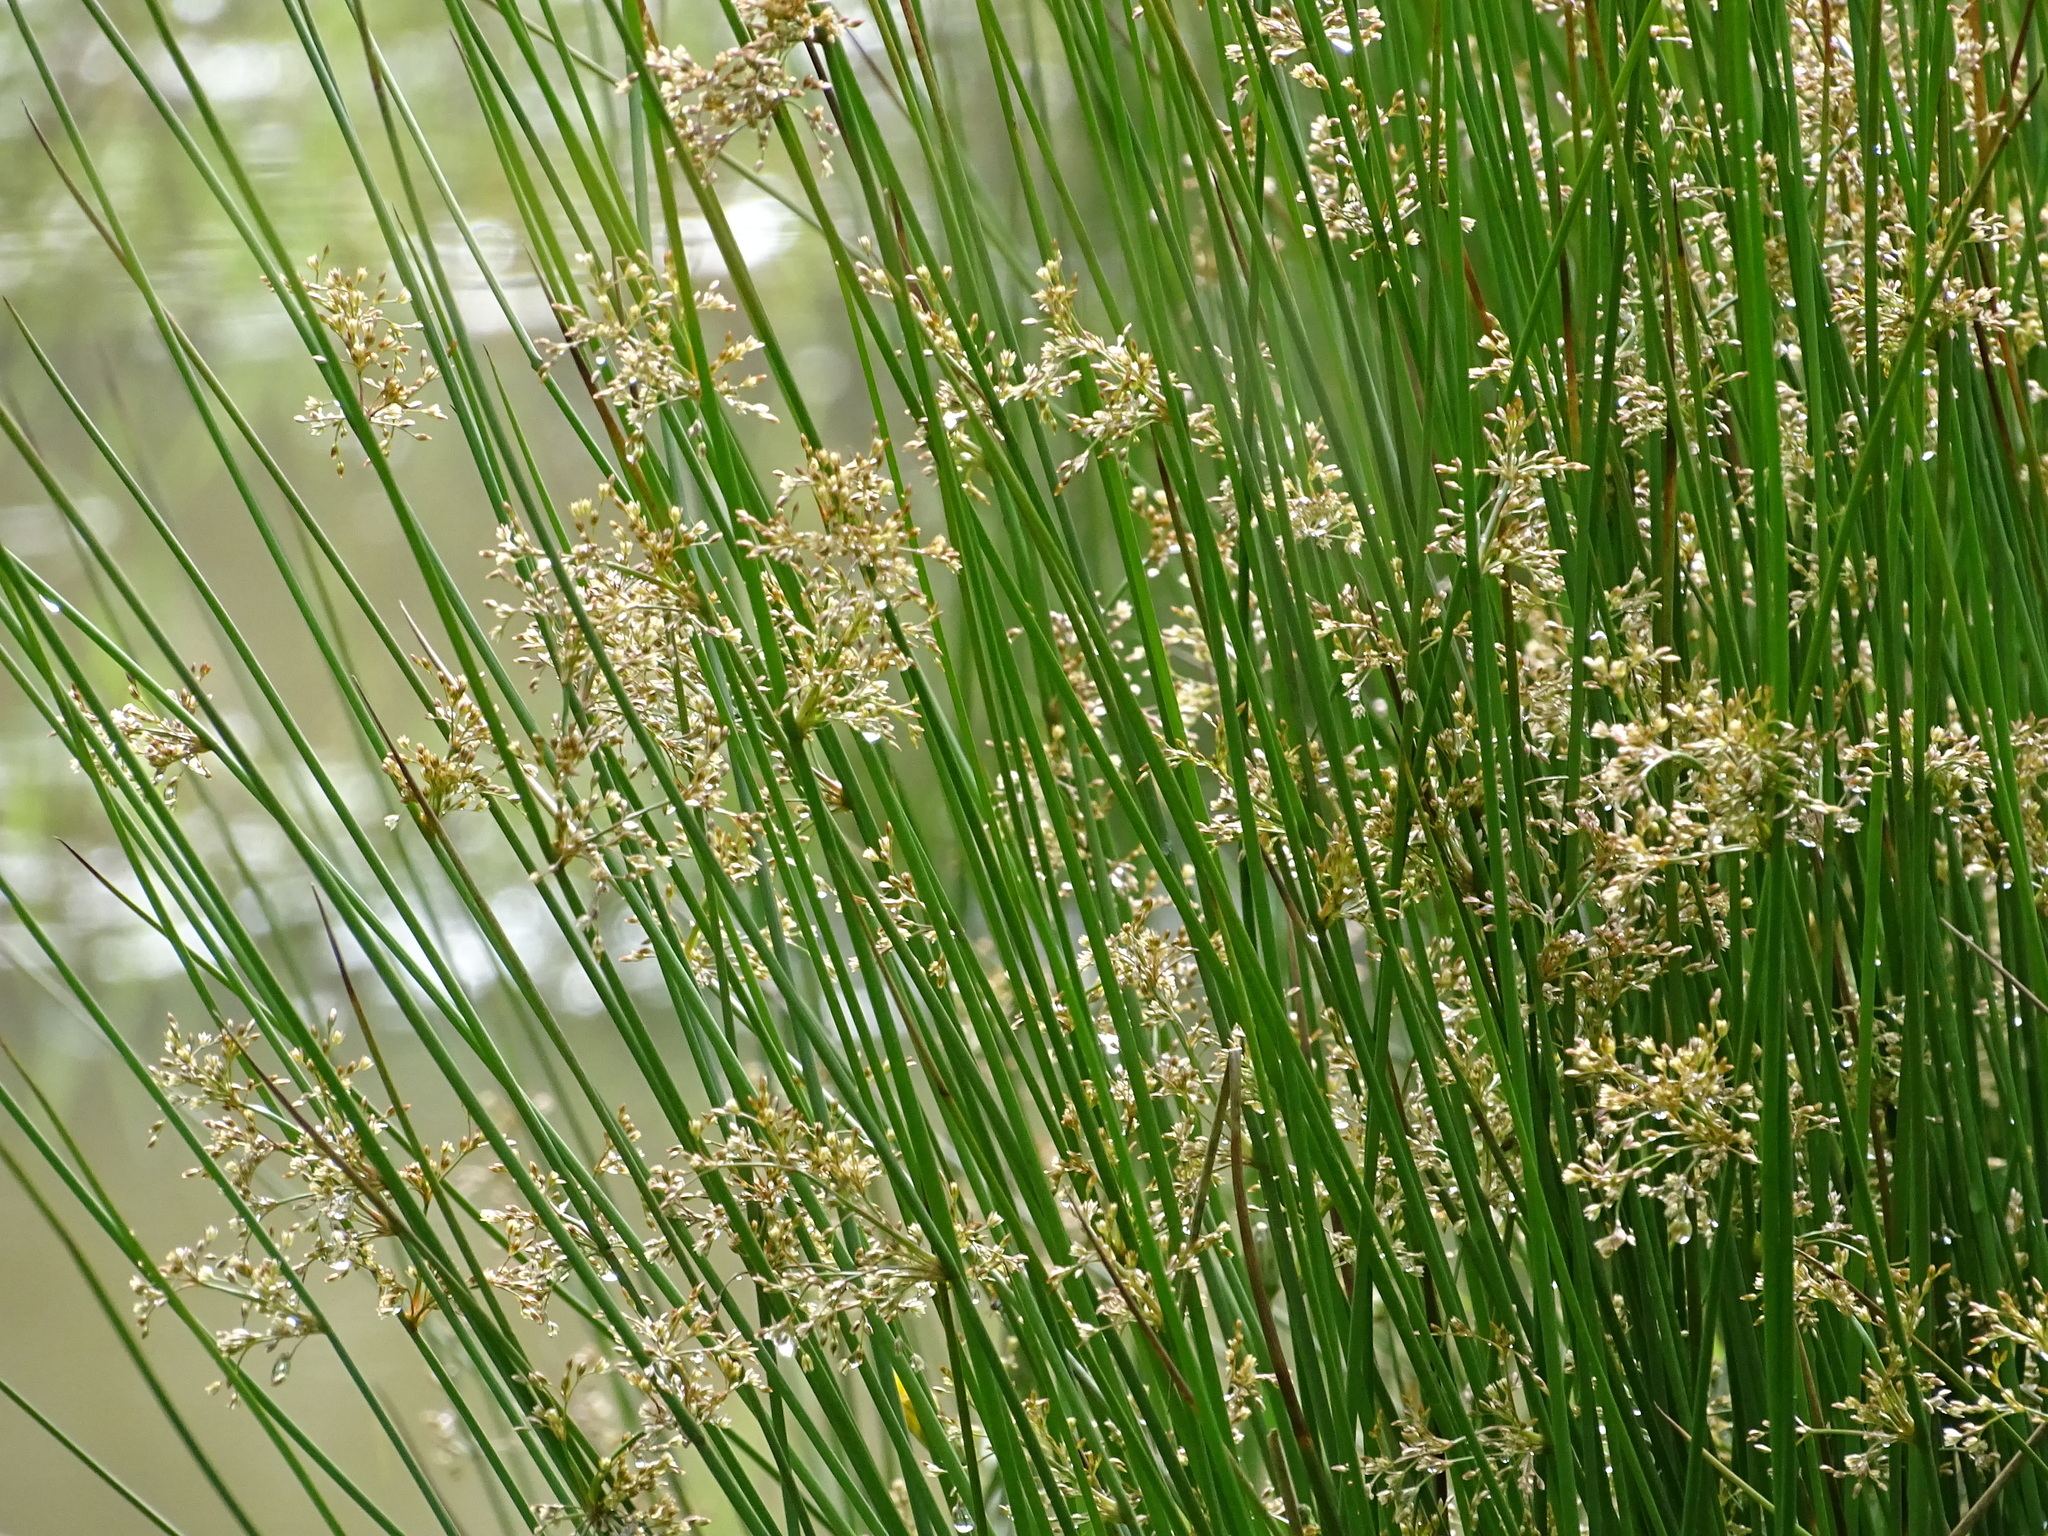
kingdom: Plantae
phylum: Tracheophyta
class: Liliopsida
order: Poales
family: Juncaceae
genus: Juncus
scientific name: Juncus effusus
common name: Soft rush
